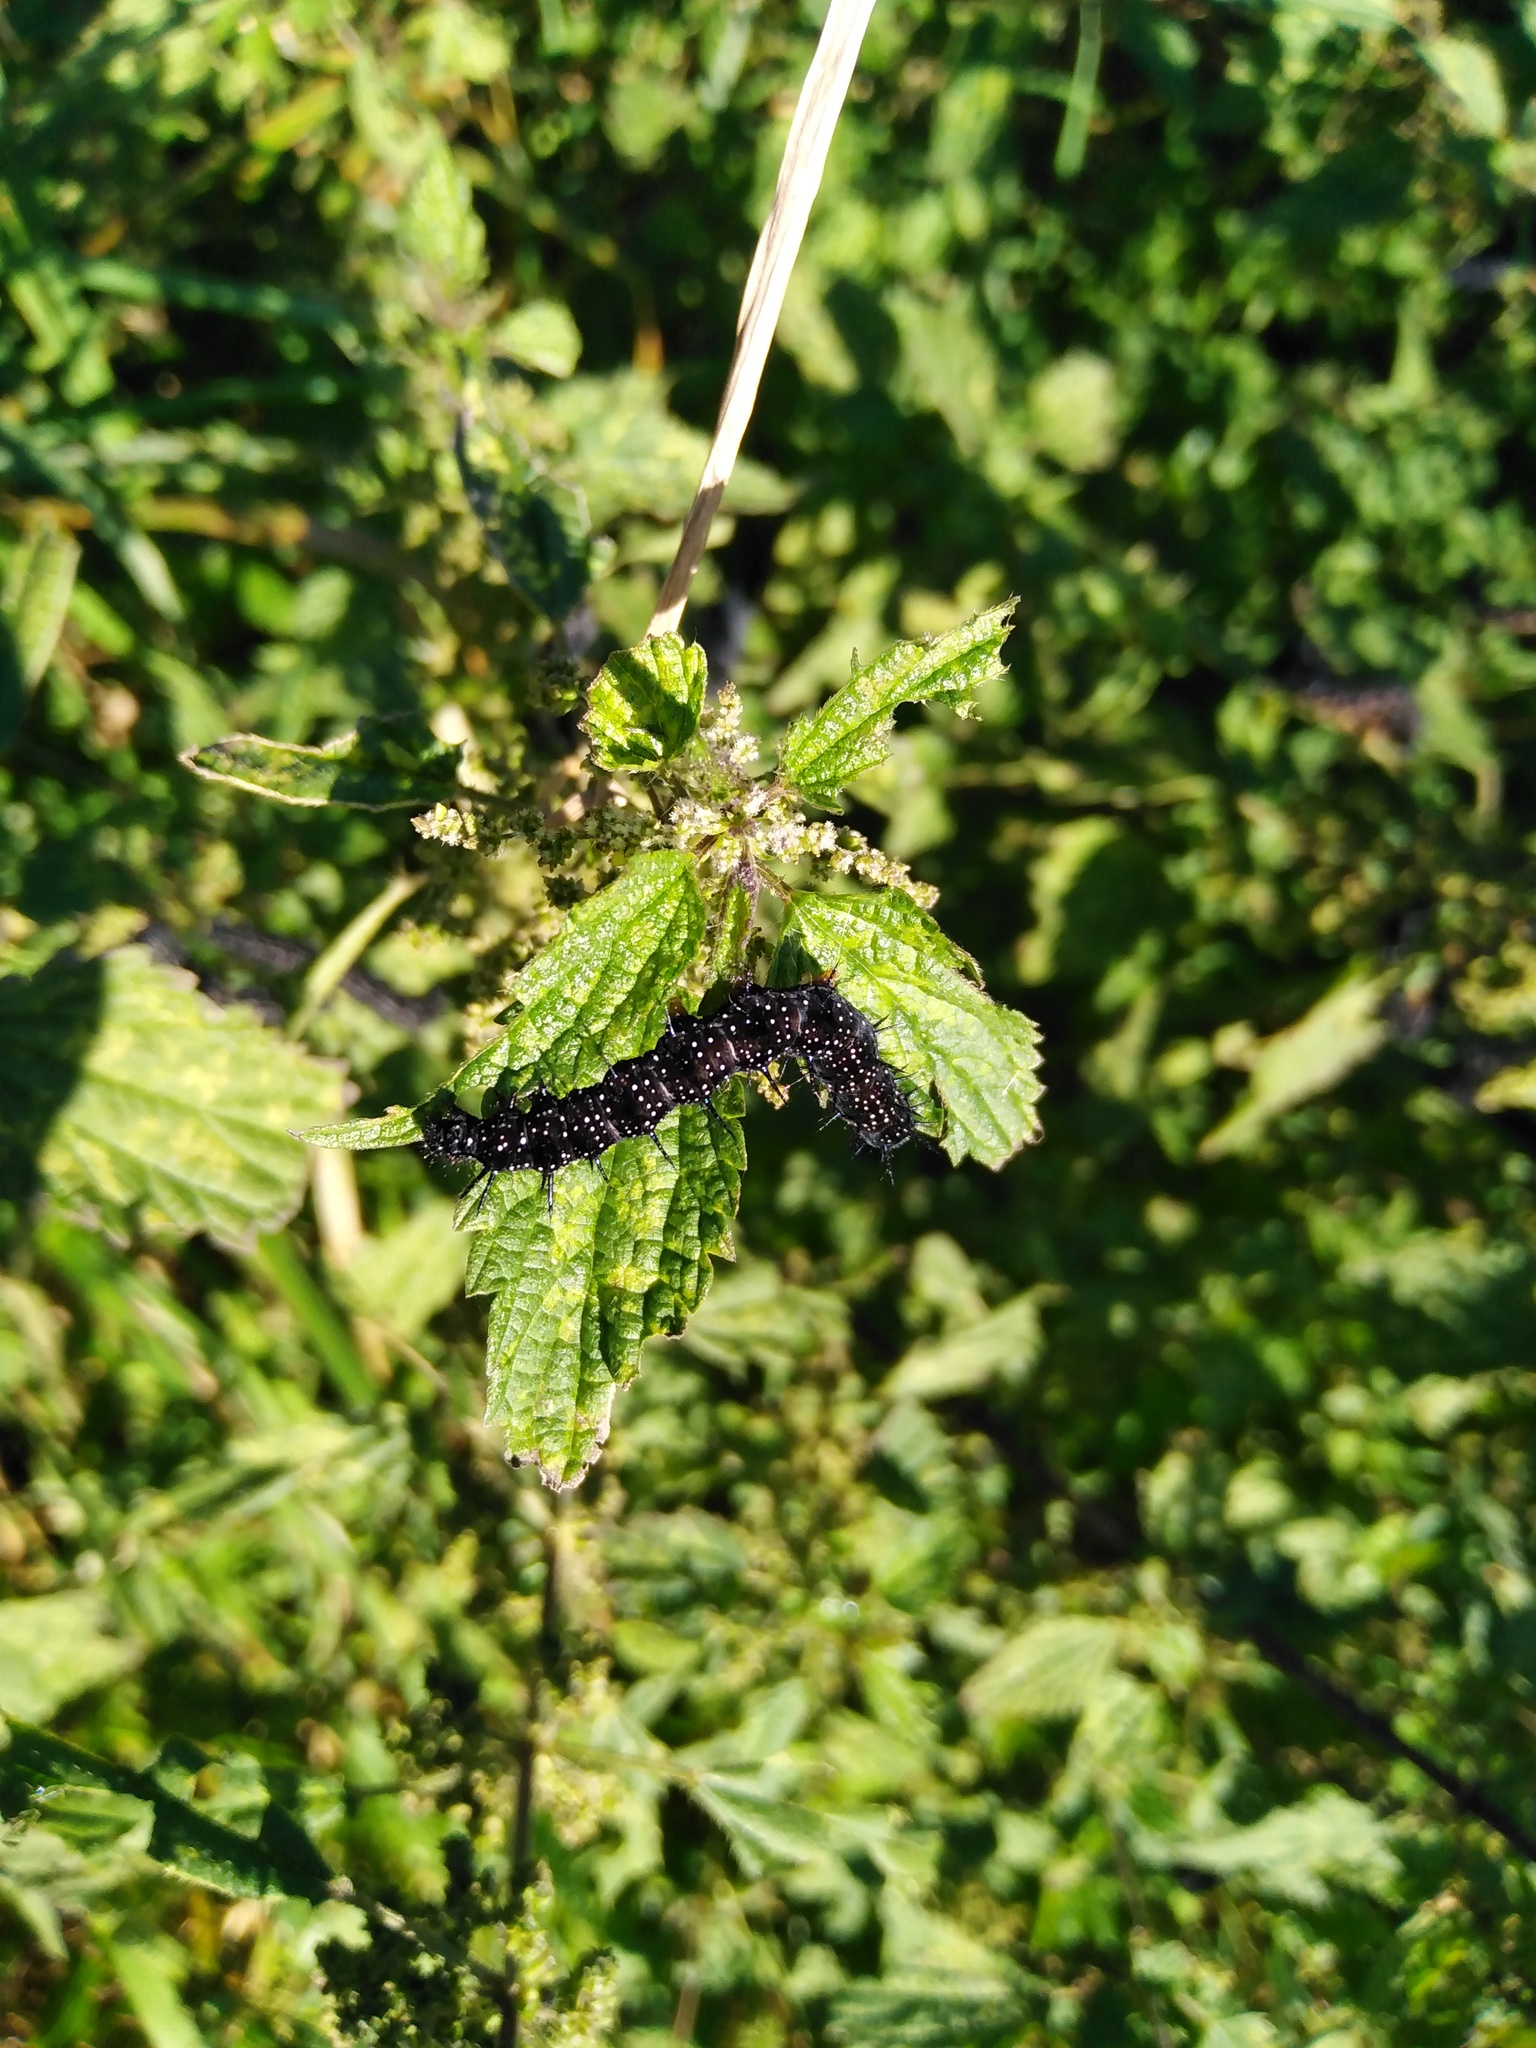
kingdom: Animalia
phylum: Arthropoda
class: Insecta
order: Lepidoptera
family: Nymphalidae
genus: Aglais
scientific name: Aglais io
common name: Peacock
